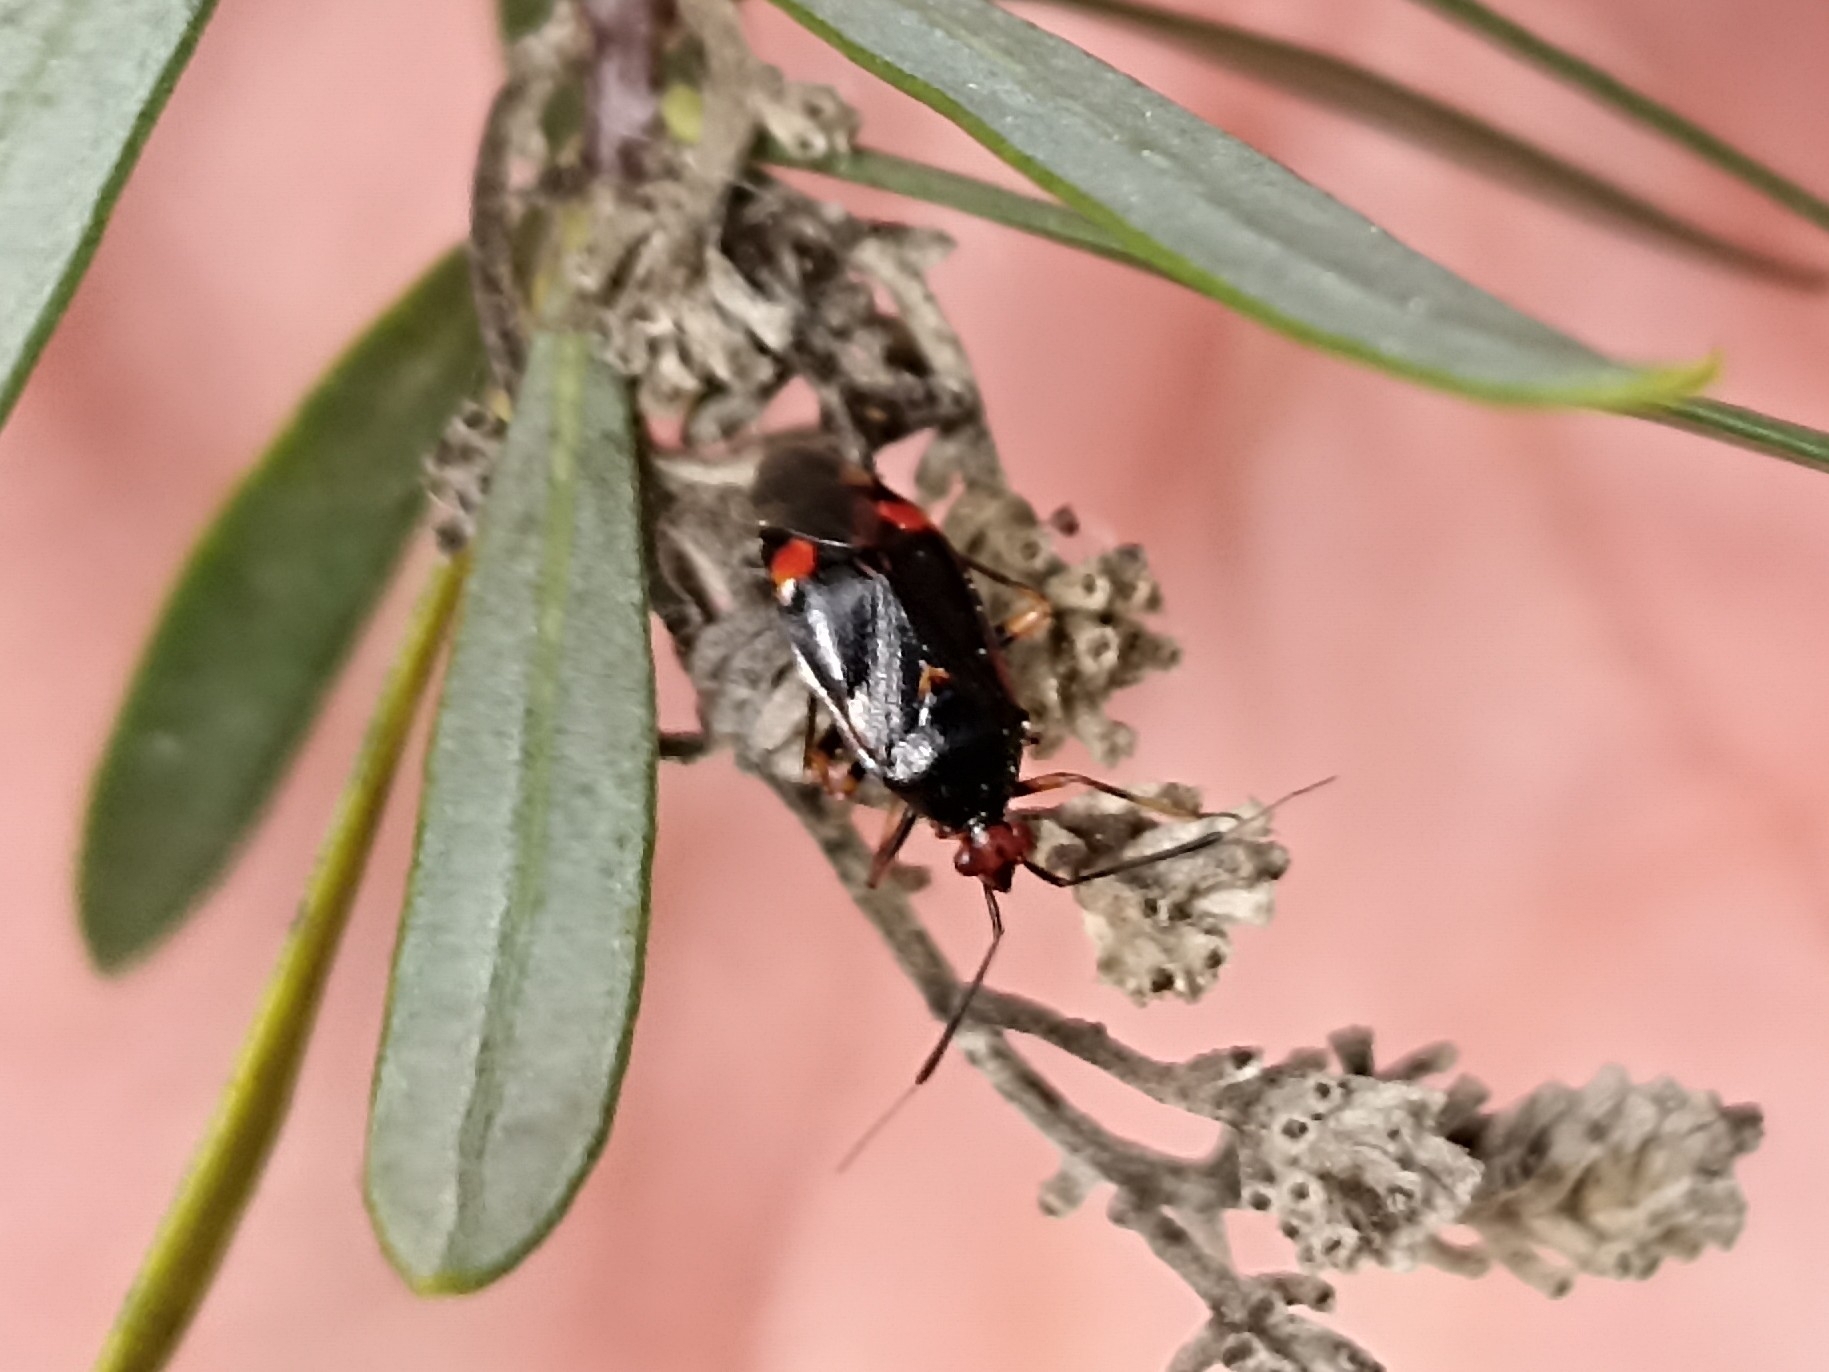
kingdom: Animalia
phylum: Arthropoda
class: Insecta
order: Hemiptera
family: Miridae
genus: Deraeocoris
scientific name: Deraeocoris ruber
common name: Plant bug
